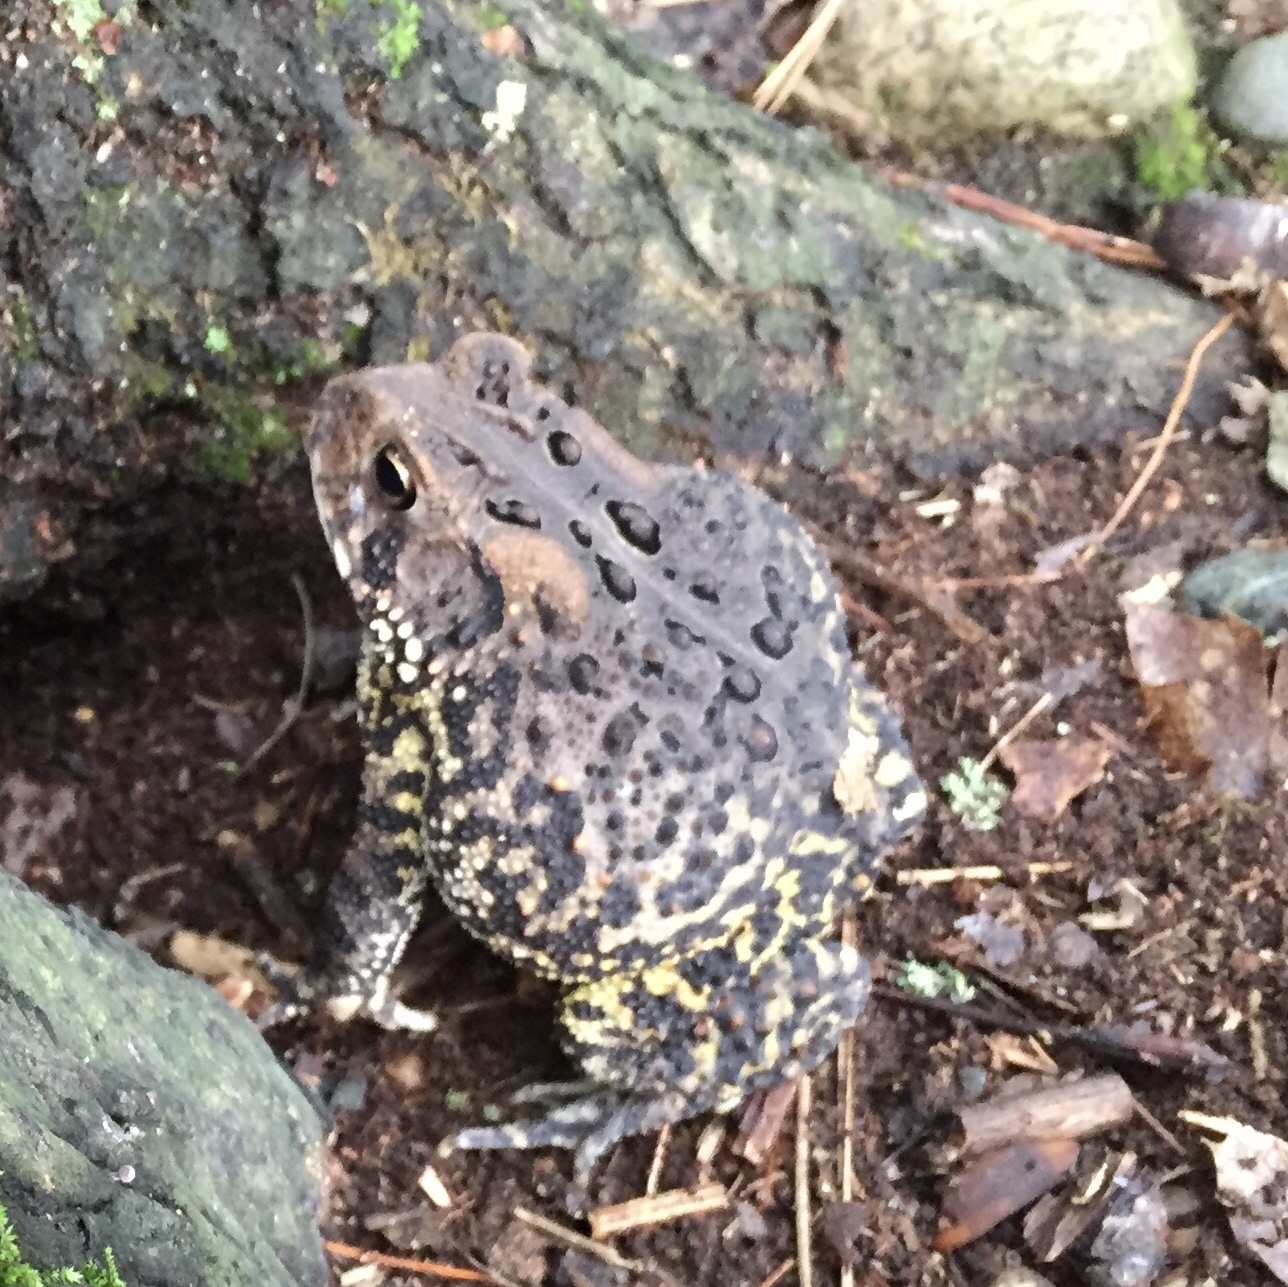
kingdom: Animalia
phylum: Chordata
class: Amphibia
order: Anura
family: Bufonidae
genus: Anaxyrus
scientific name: Anaxyrus americanus
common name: American toad
